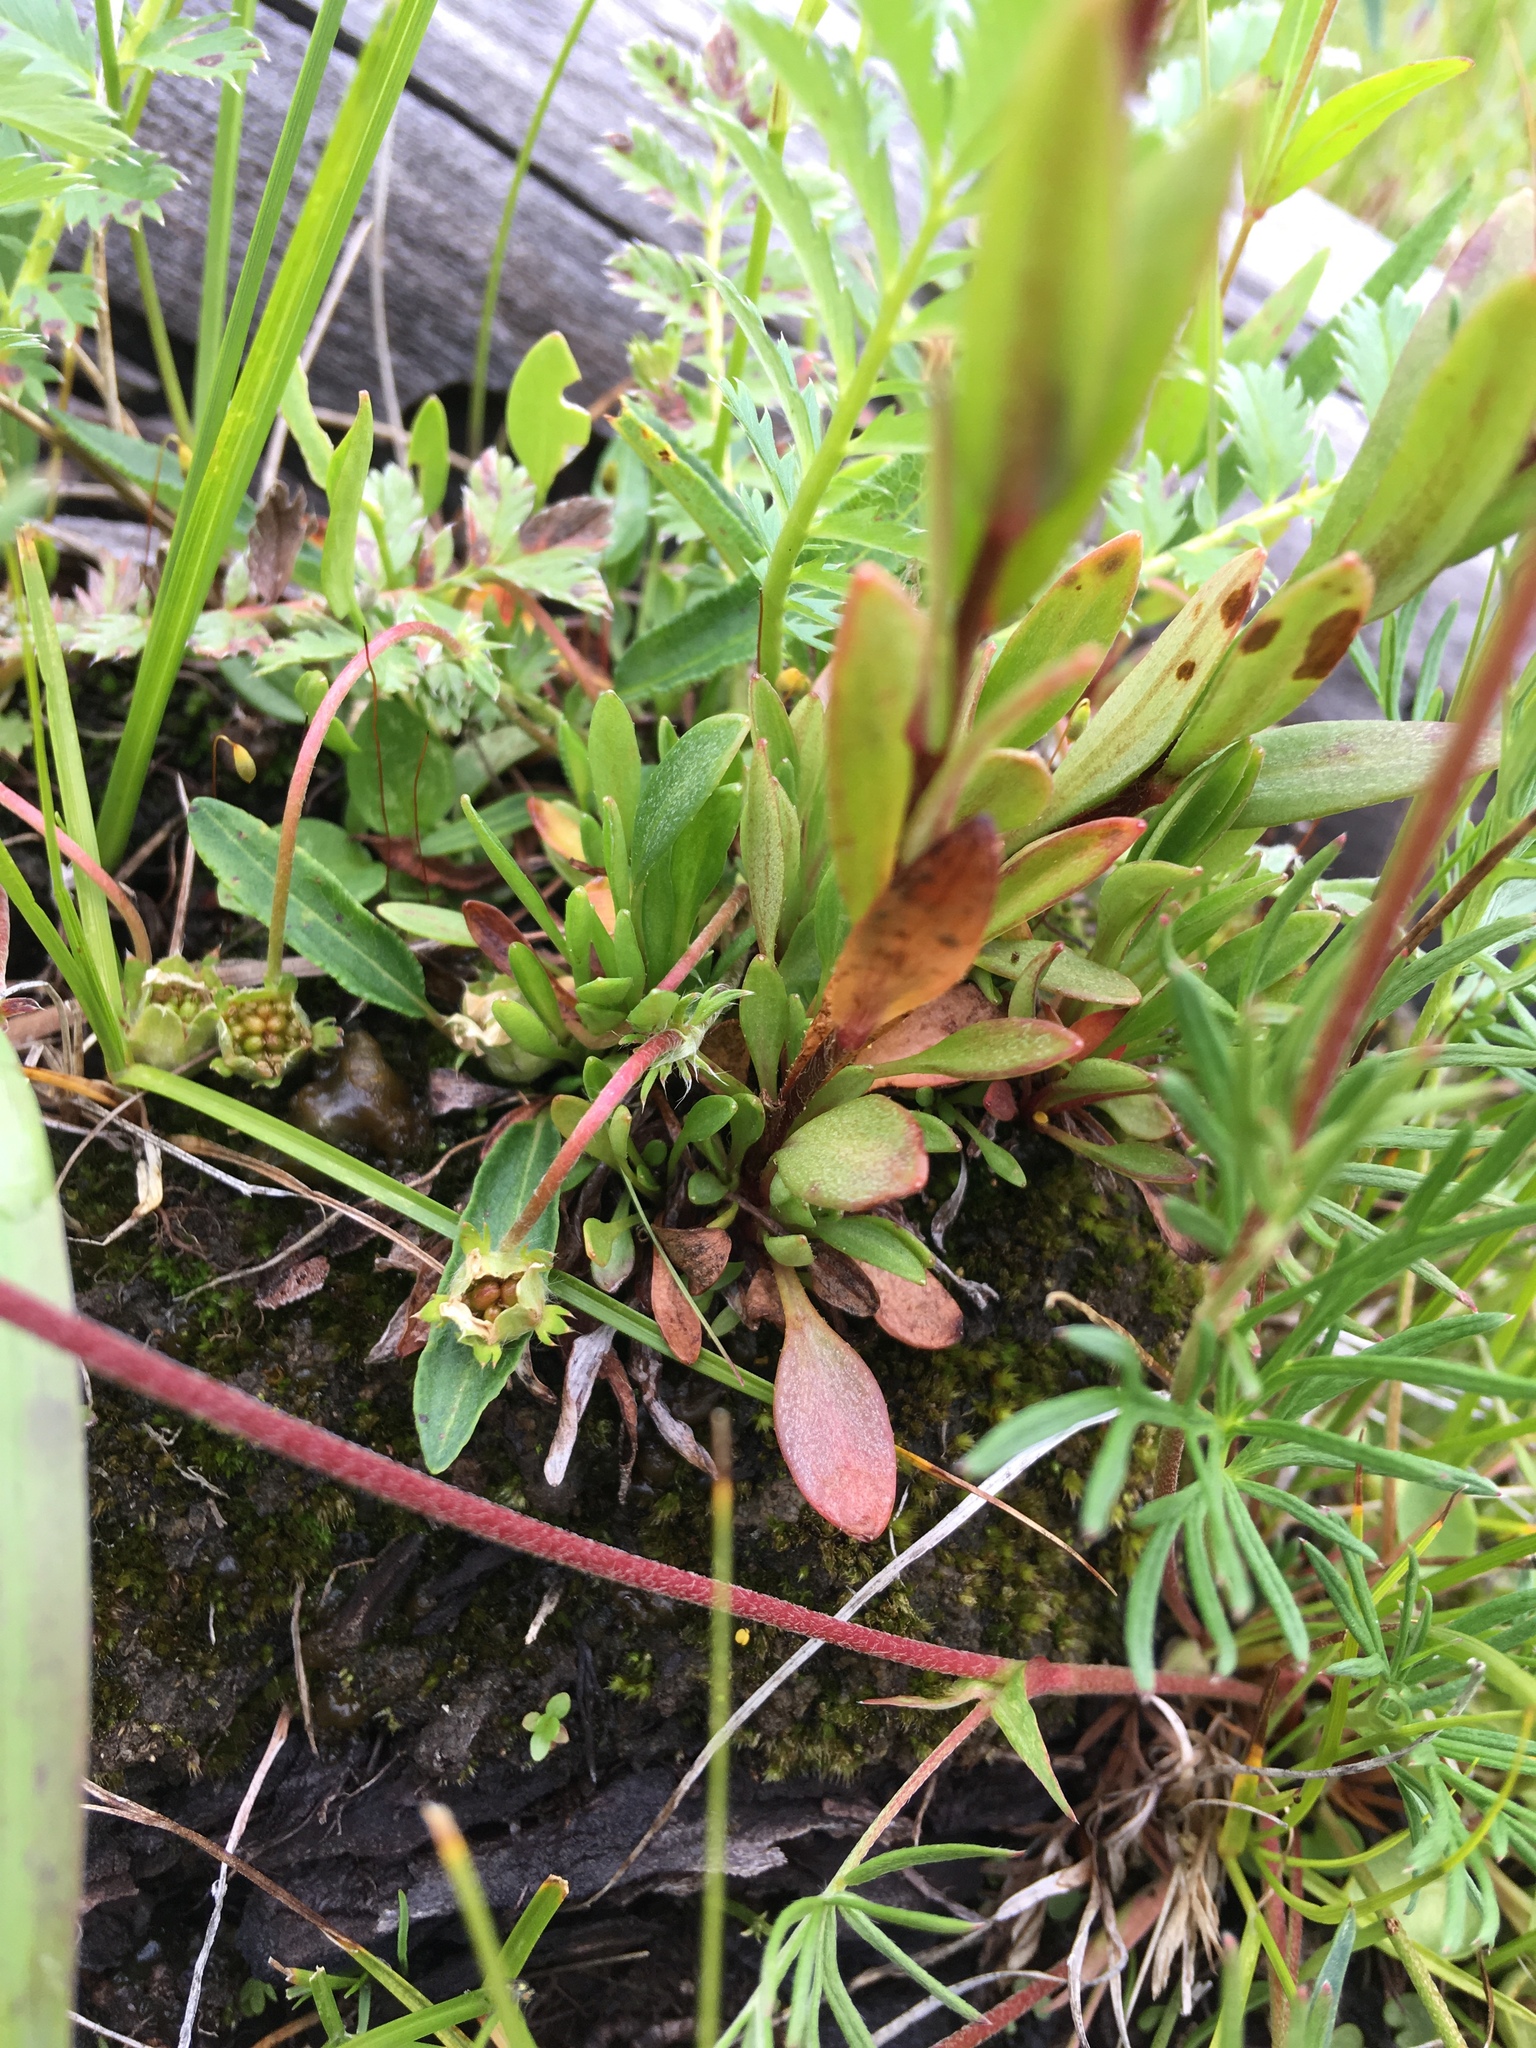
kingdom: Plantae
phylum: Tracheophyta
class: Magnoliopsida
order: Saxifragales
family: Saxifragaceae
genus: Saxifraga
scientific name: Saxifraga hirculus
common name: Yellow marsh saxifrage
